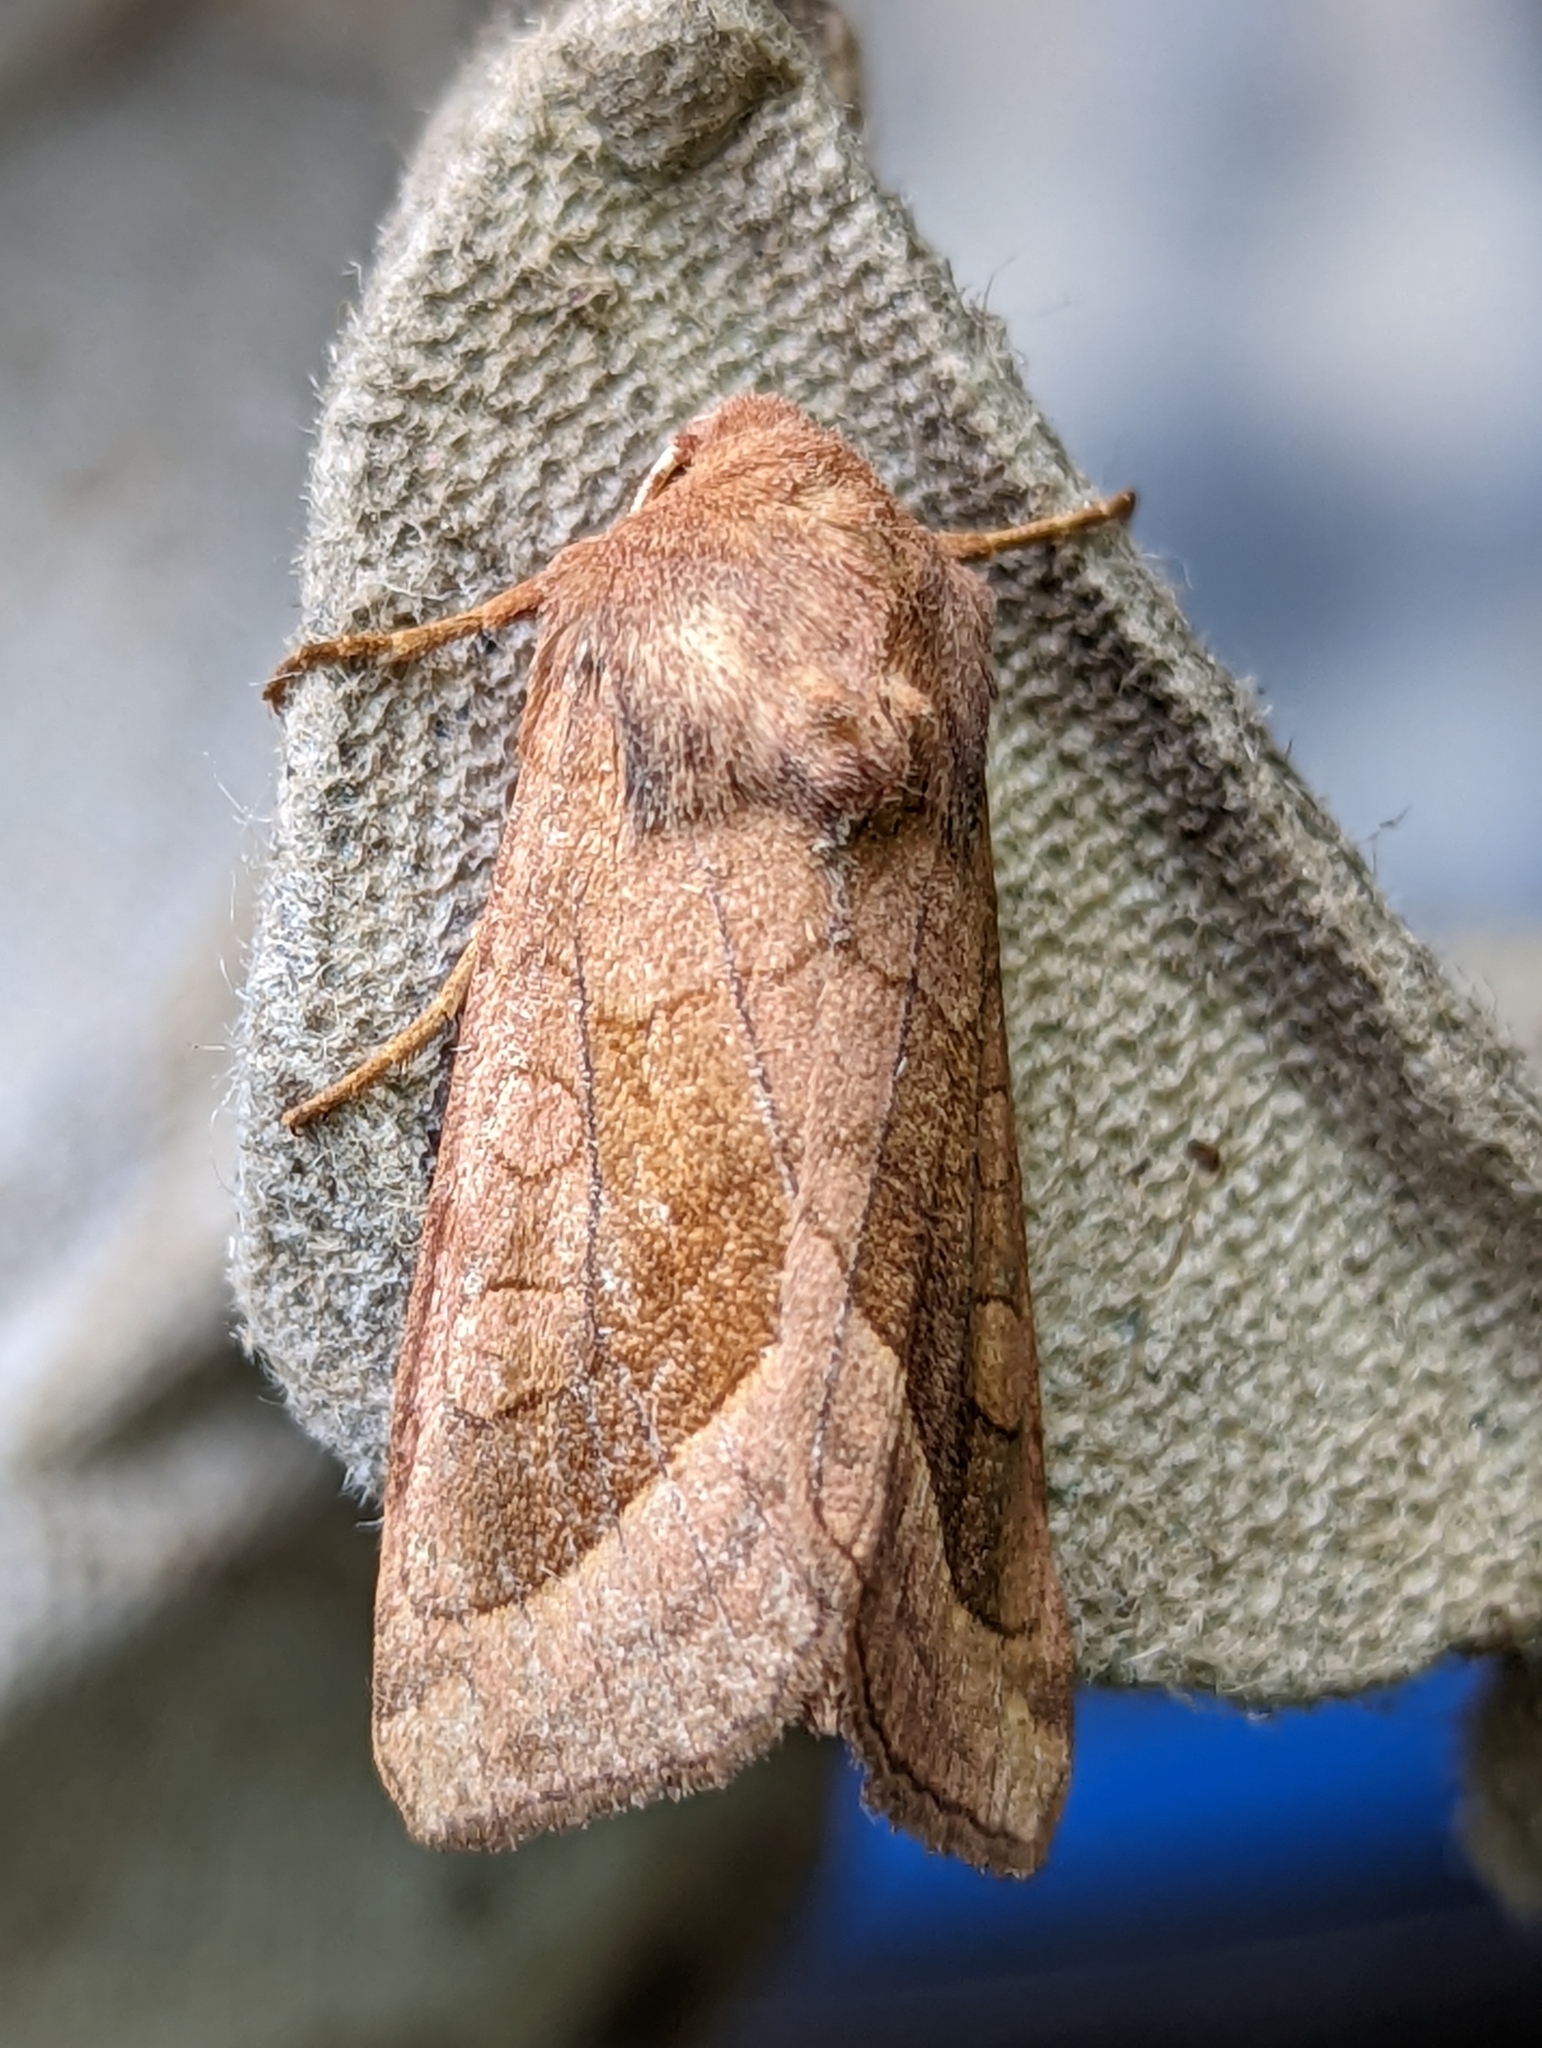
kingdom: Animalia
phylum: Arthropoda
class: Insecta
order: Lepidoptera
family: Noctuidae
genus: Hydraecia
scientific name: Hydraecia micacea
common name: Rosy rustic
